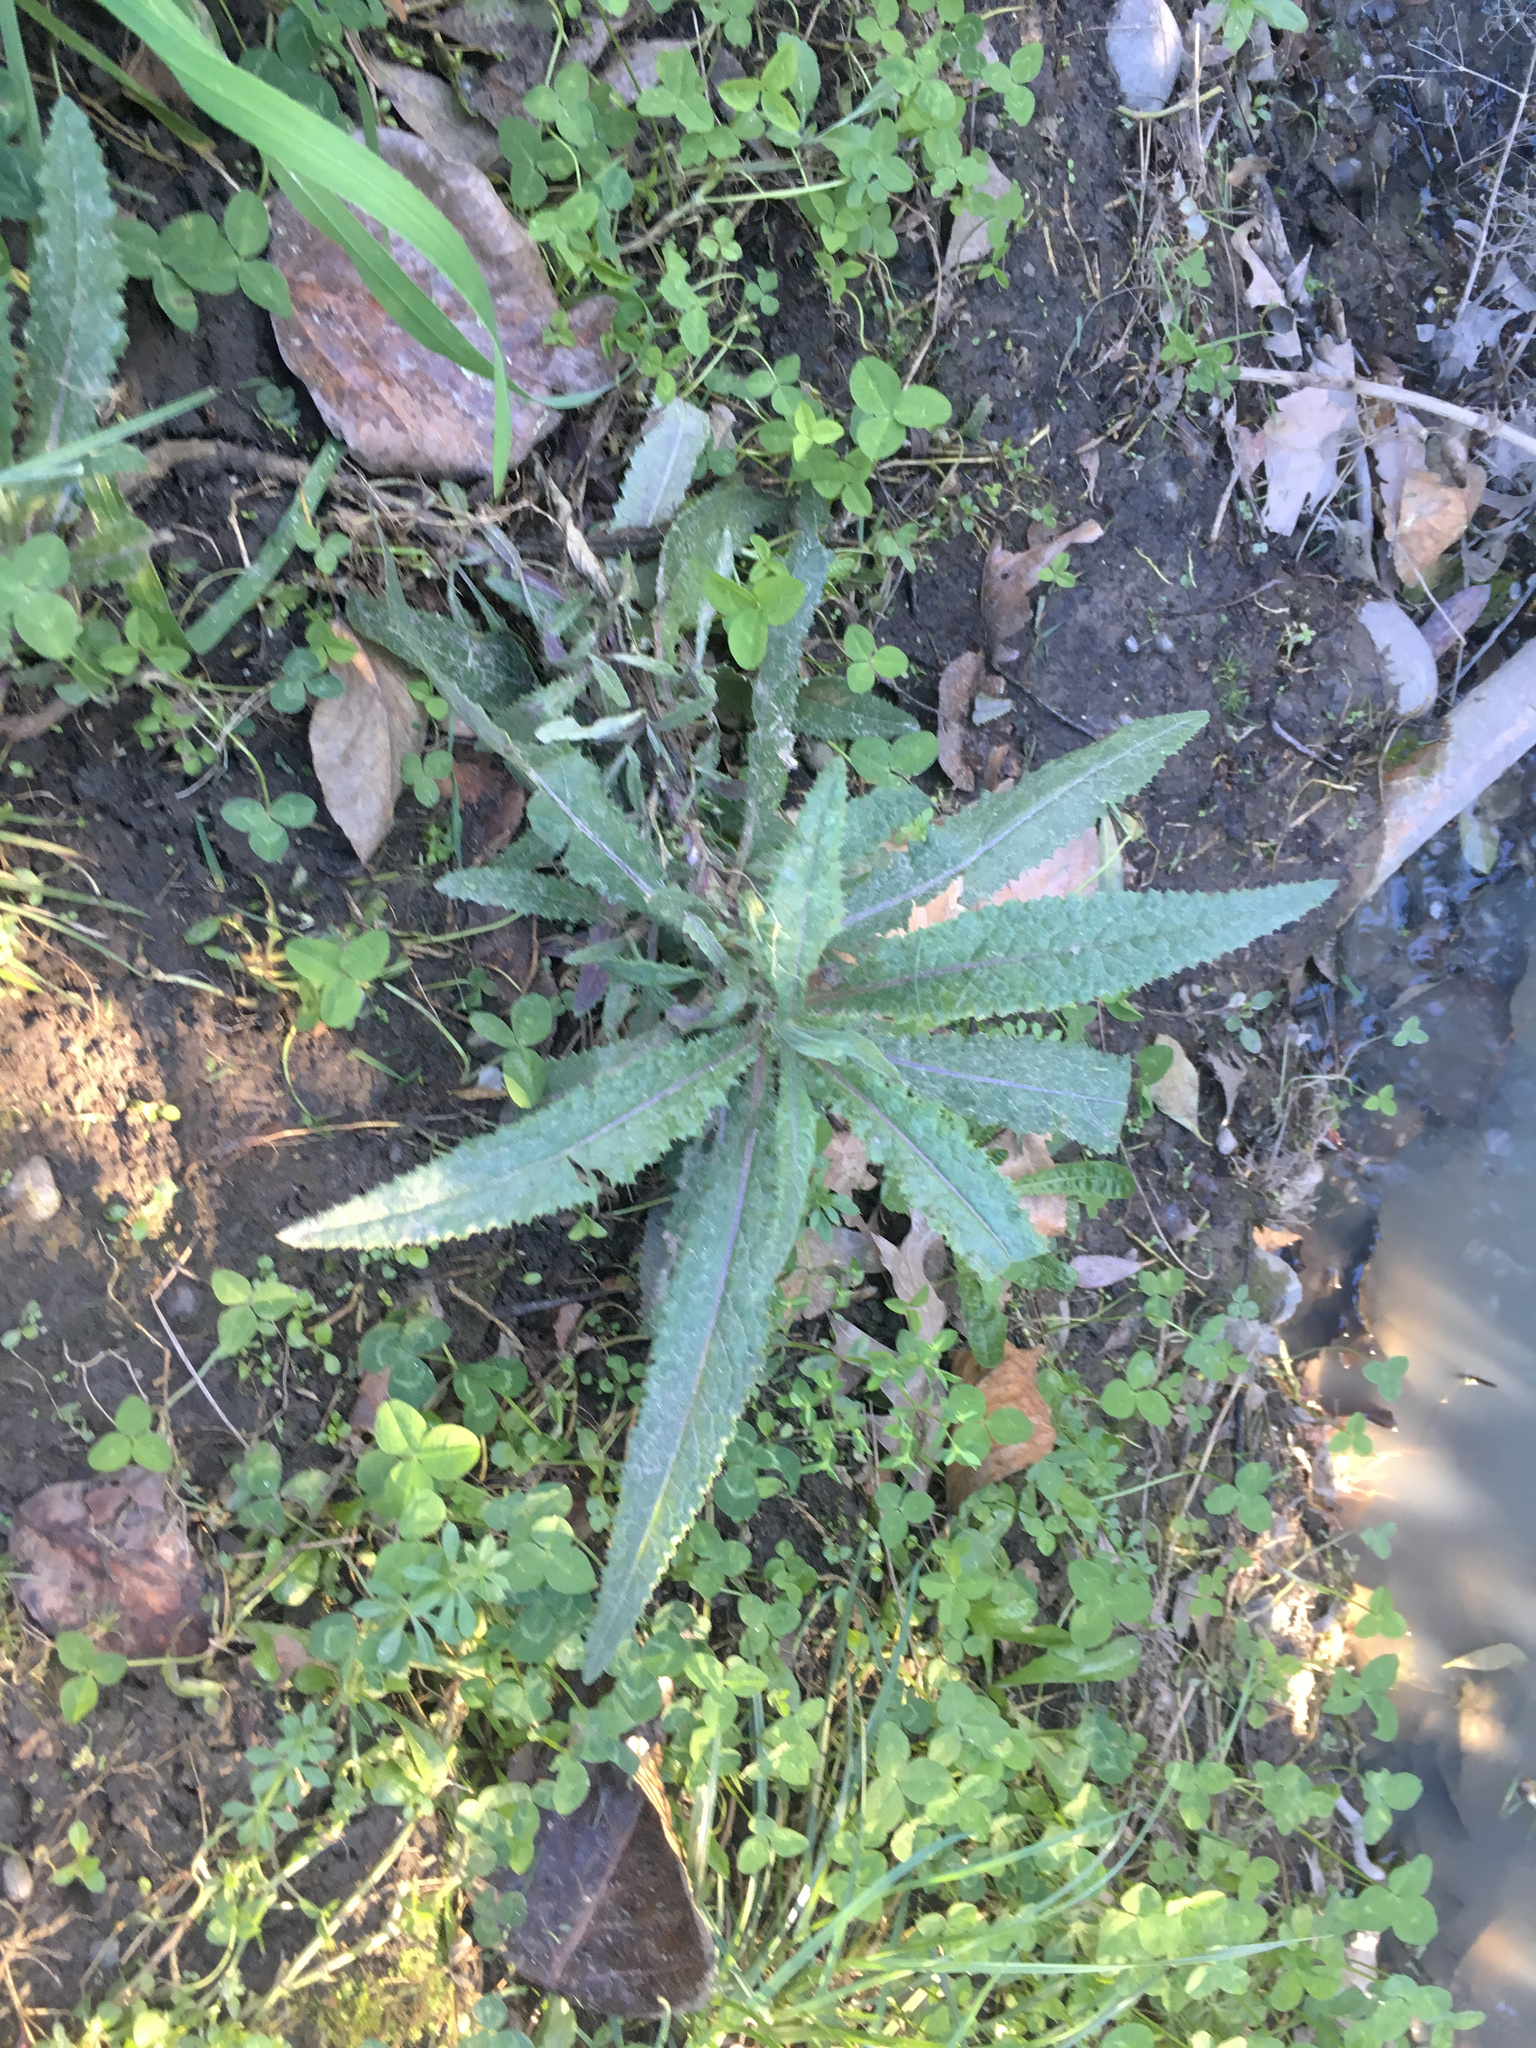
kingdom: Plantae
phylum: Tracheophyta
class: Magnoliopsida
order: Asterales
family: Asteraceae
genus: Senecio
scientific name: Senecio minimus
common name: Toothed fireweed
